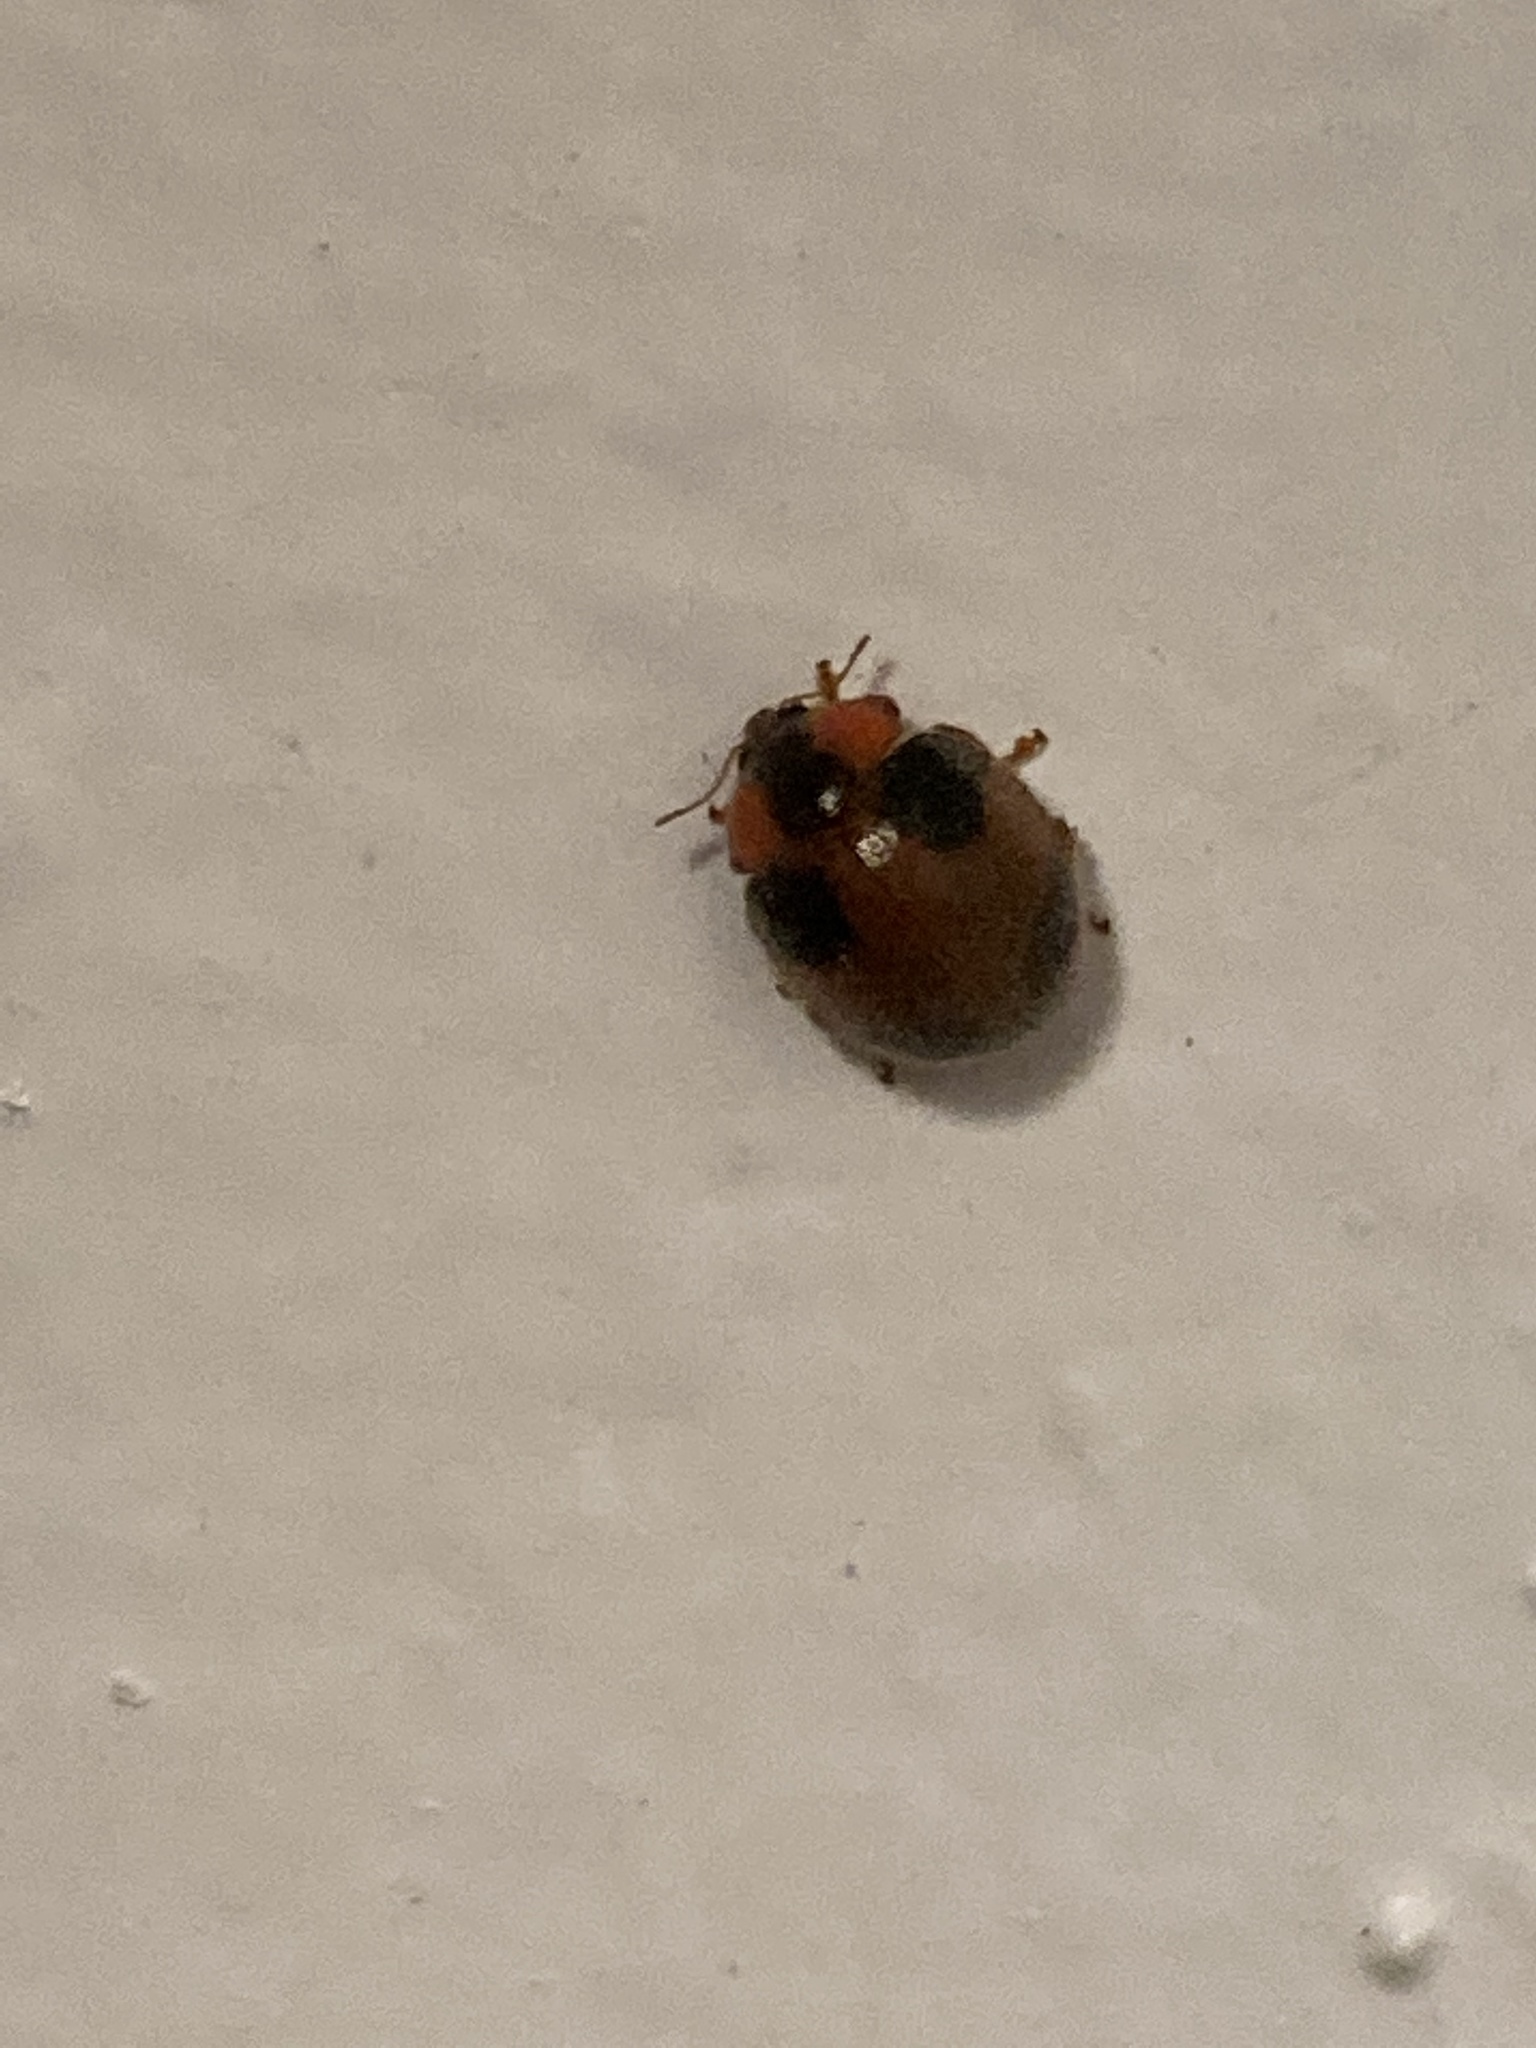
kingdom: Animalia
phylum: Arthropoda
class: Insecta
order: Coleoptera
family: Coccinellidae
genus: Eupalea
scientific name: Eupalea
